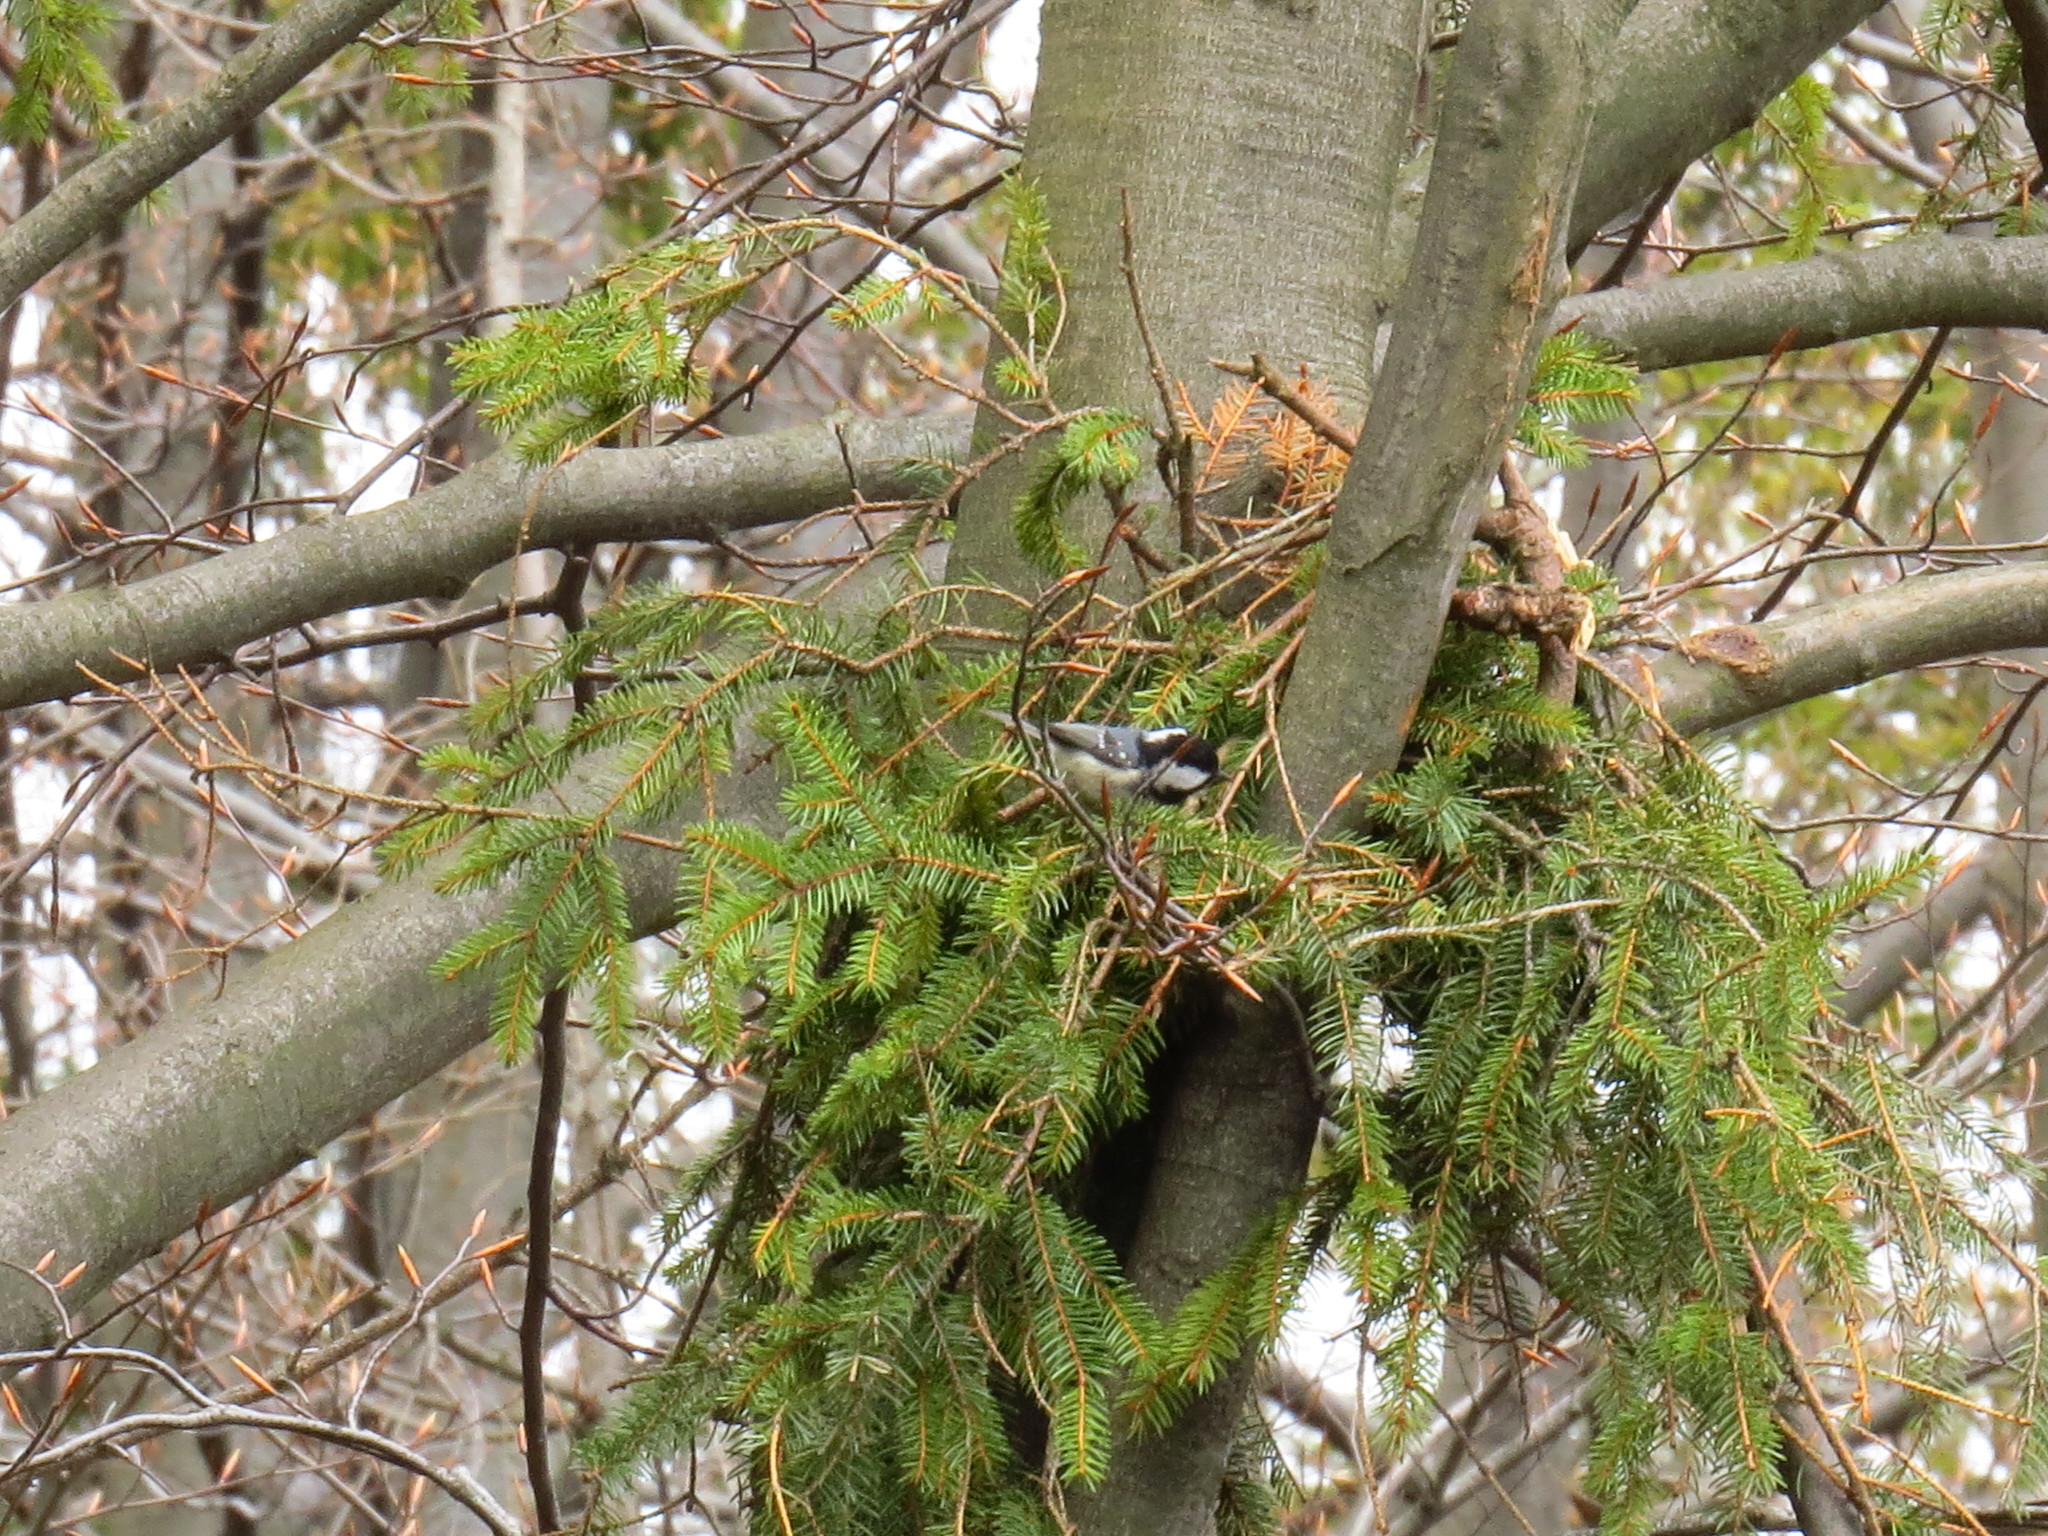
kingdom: Animalia
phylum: Chordata
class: Aves
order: Passeriformes
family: Paridae
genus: Periparus
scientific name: Periparus ater
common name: Coal tit
